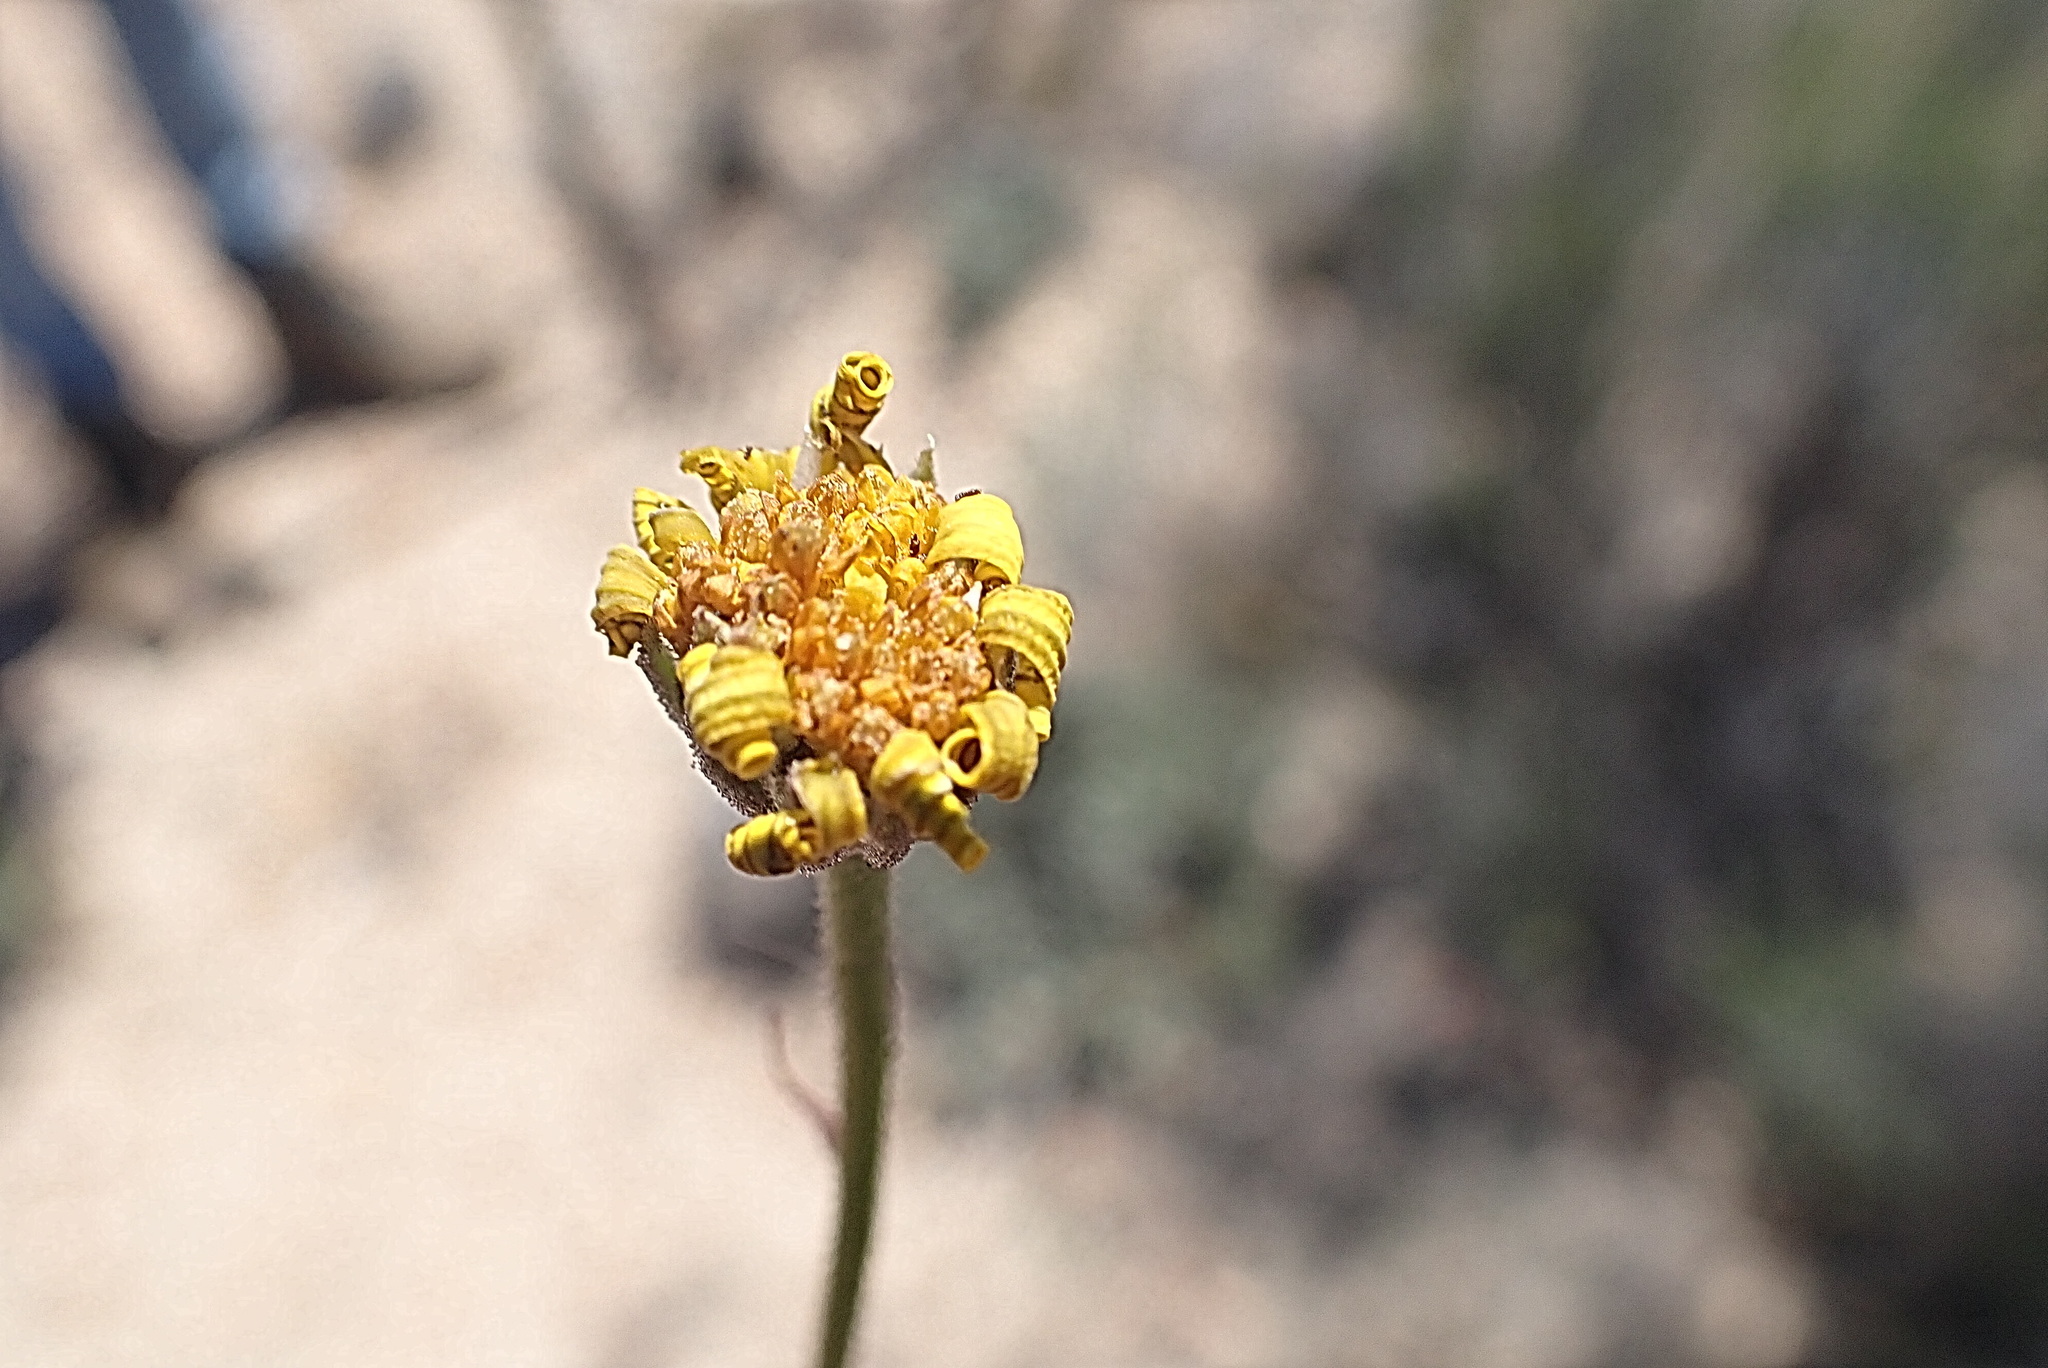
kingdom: Plantae
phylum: Tracheophyta
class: Magnoliopsida
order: Asterales
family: Asteraceae
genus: Osteospermum
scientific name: Osteospermum tomentosum
